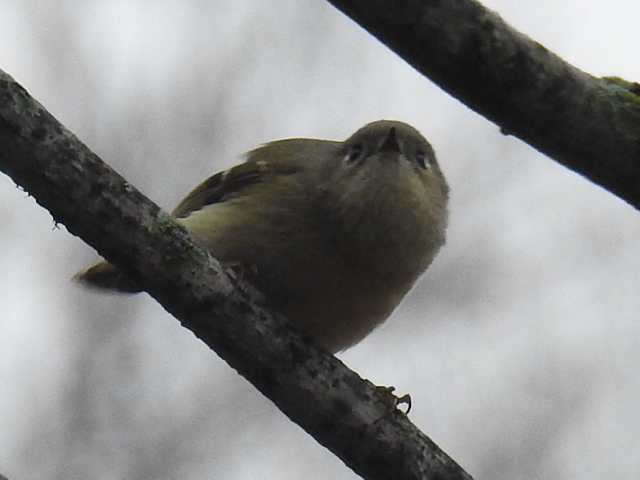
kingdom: Animalia
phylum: Chordata
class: Aves
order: Passeriformes
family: Regulidae
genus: Regulus
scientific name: Regulus calendula
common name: Ruby-crowned kinglet
